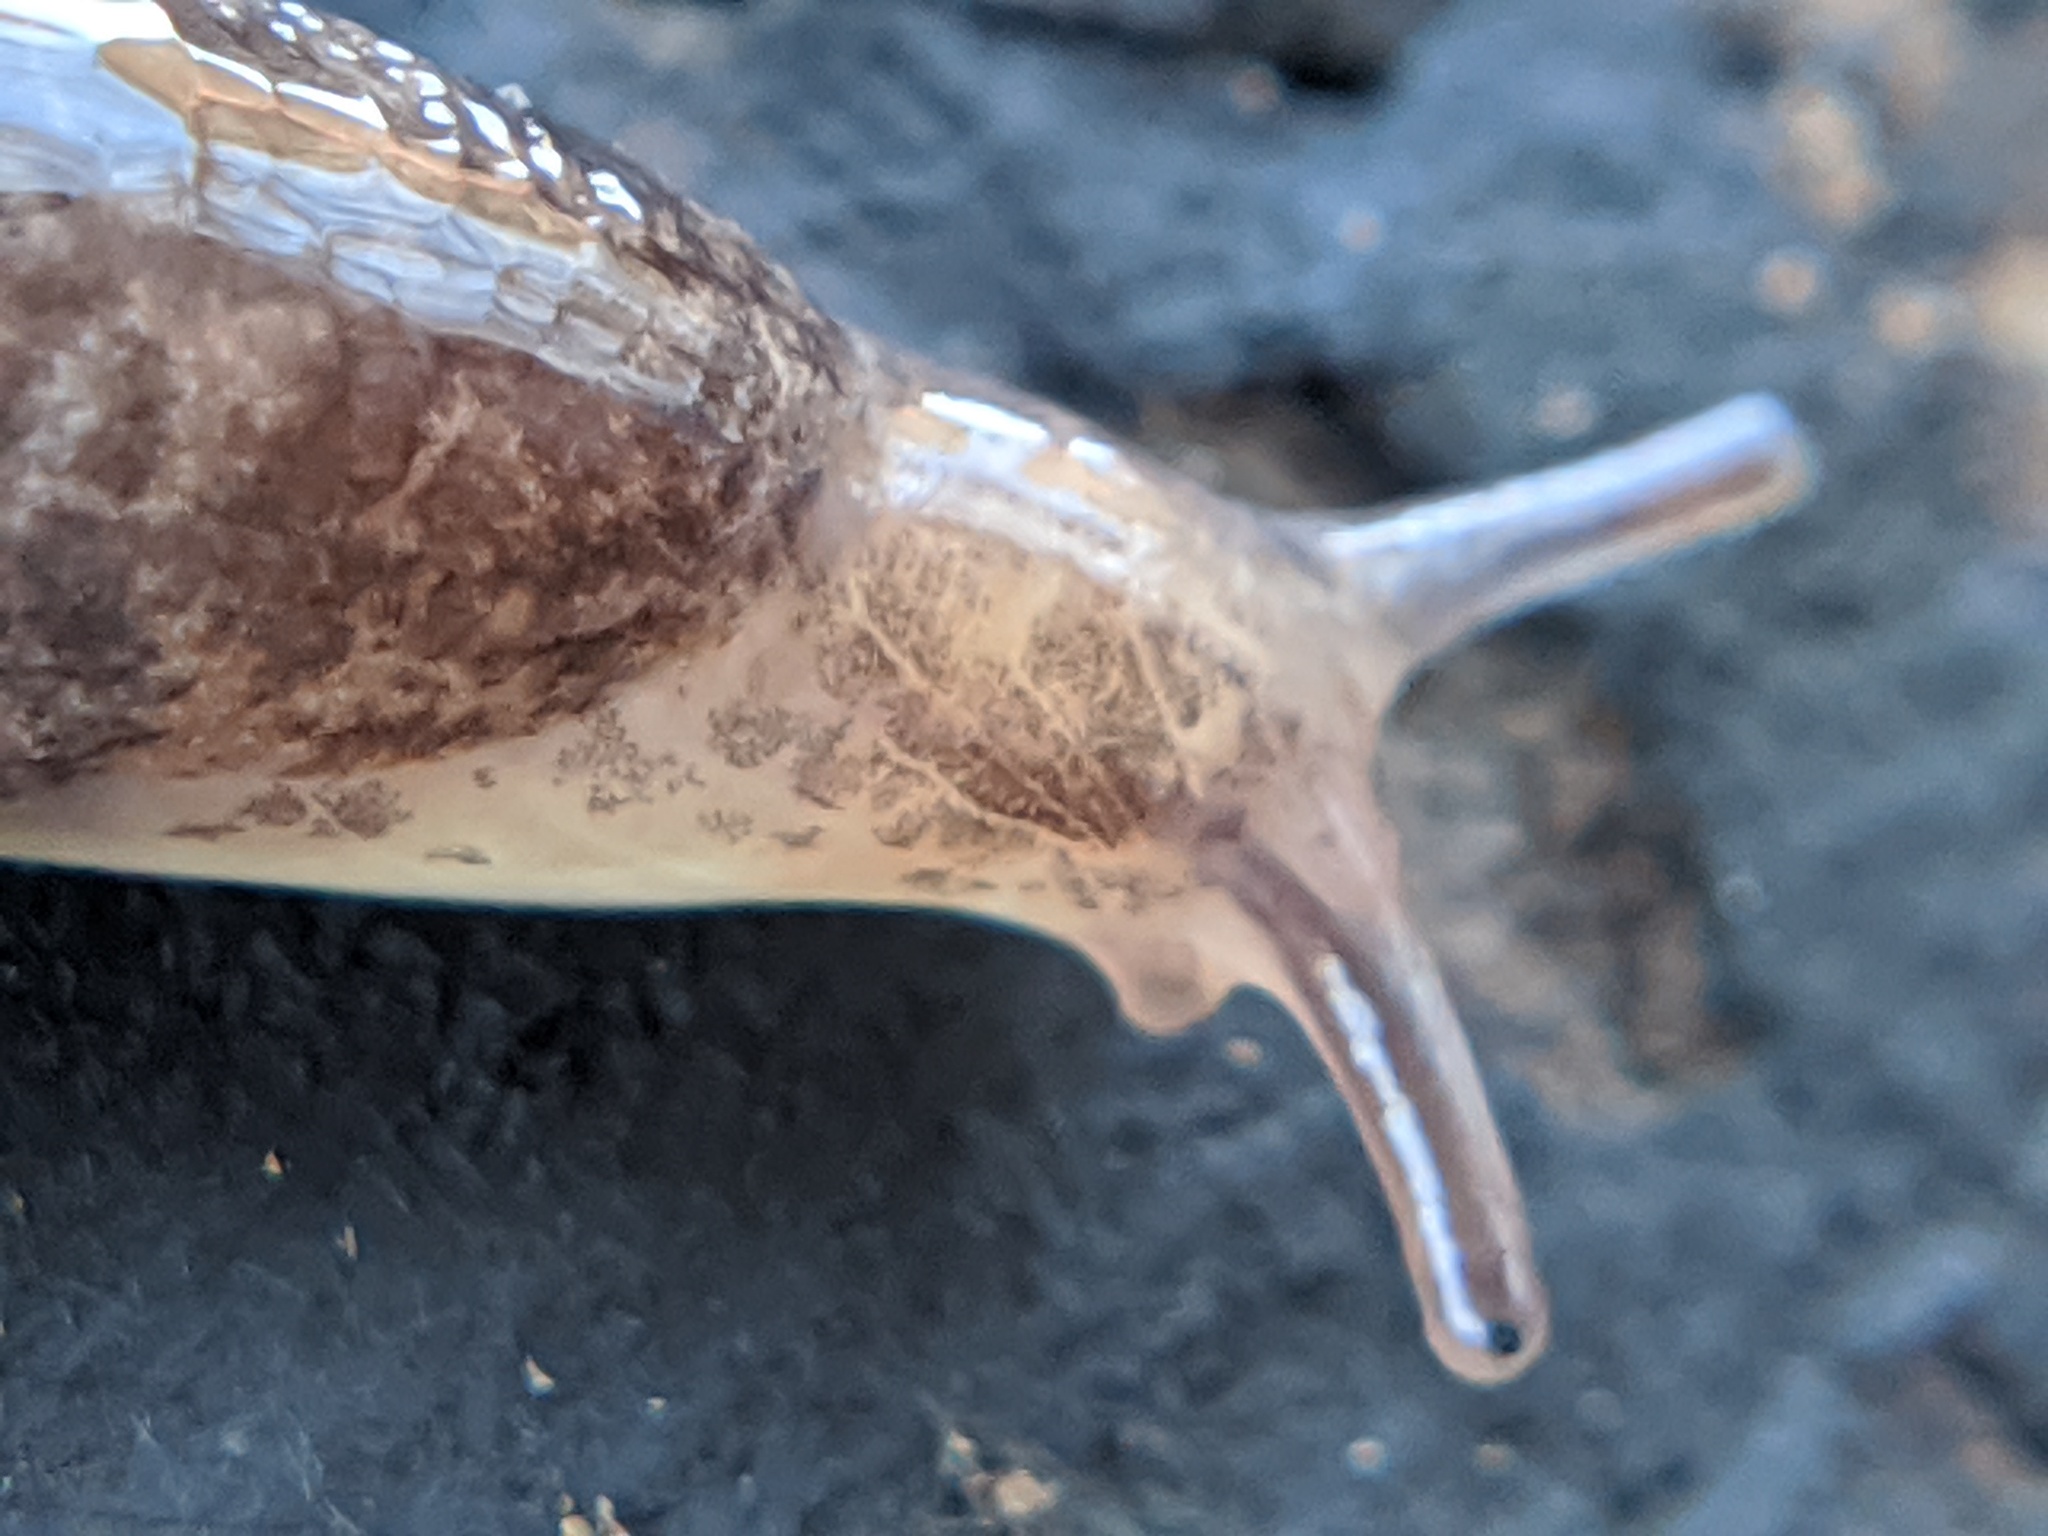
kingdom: Animalia
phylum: Mollusca
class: Gastropoda
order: Stylommatophora
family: Agriolimacidae
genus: Deroceras
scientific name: Deroceras reticulatum
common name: Gray field slug
